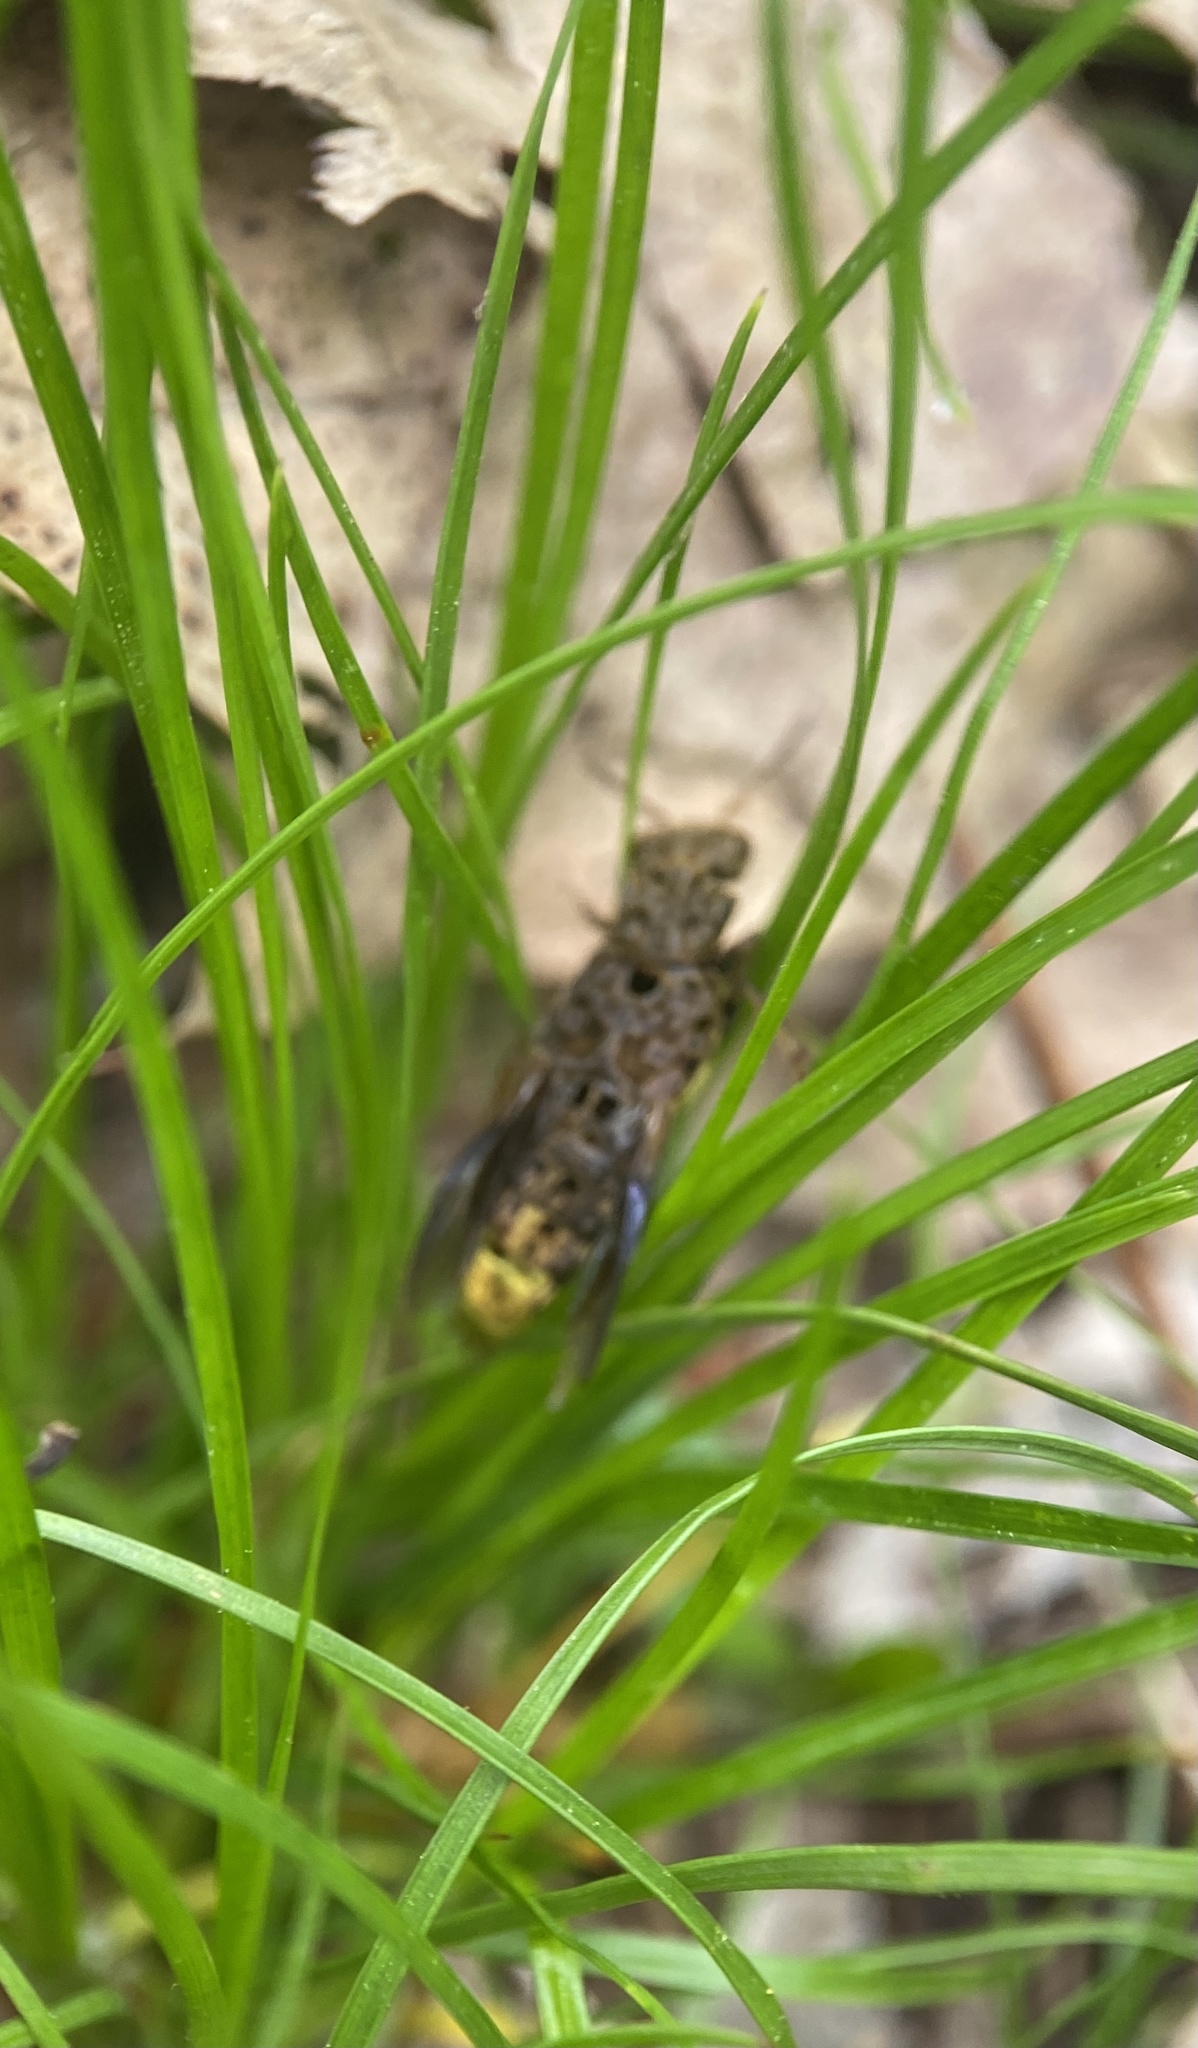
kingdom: Animalia
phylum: Arthropoda
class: Insecta
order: Coleoptera
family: Staphylinidae
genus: Ontholestes
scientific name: Ontholestes cingulatus
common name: Gold-and-brown rove beetle
